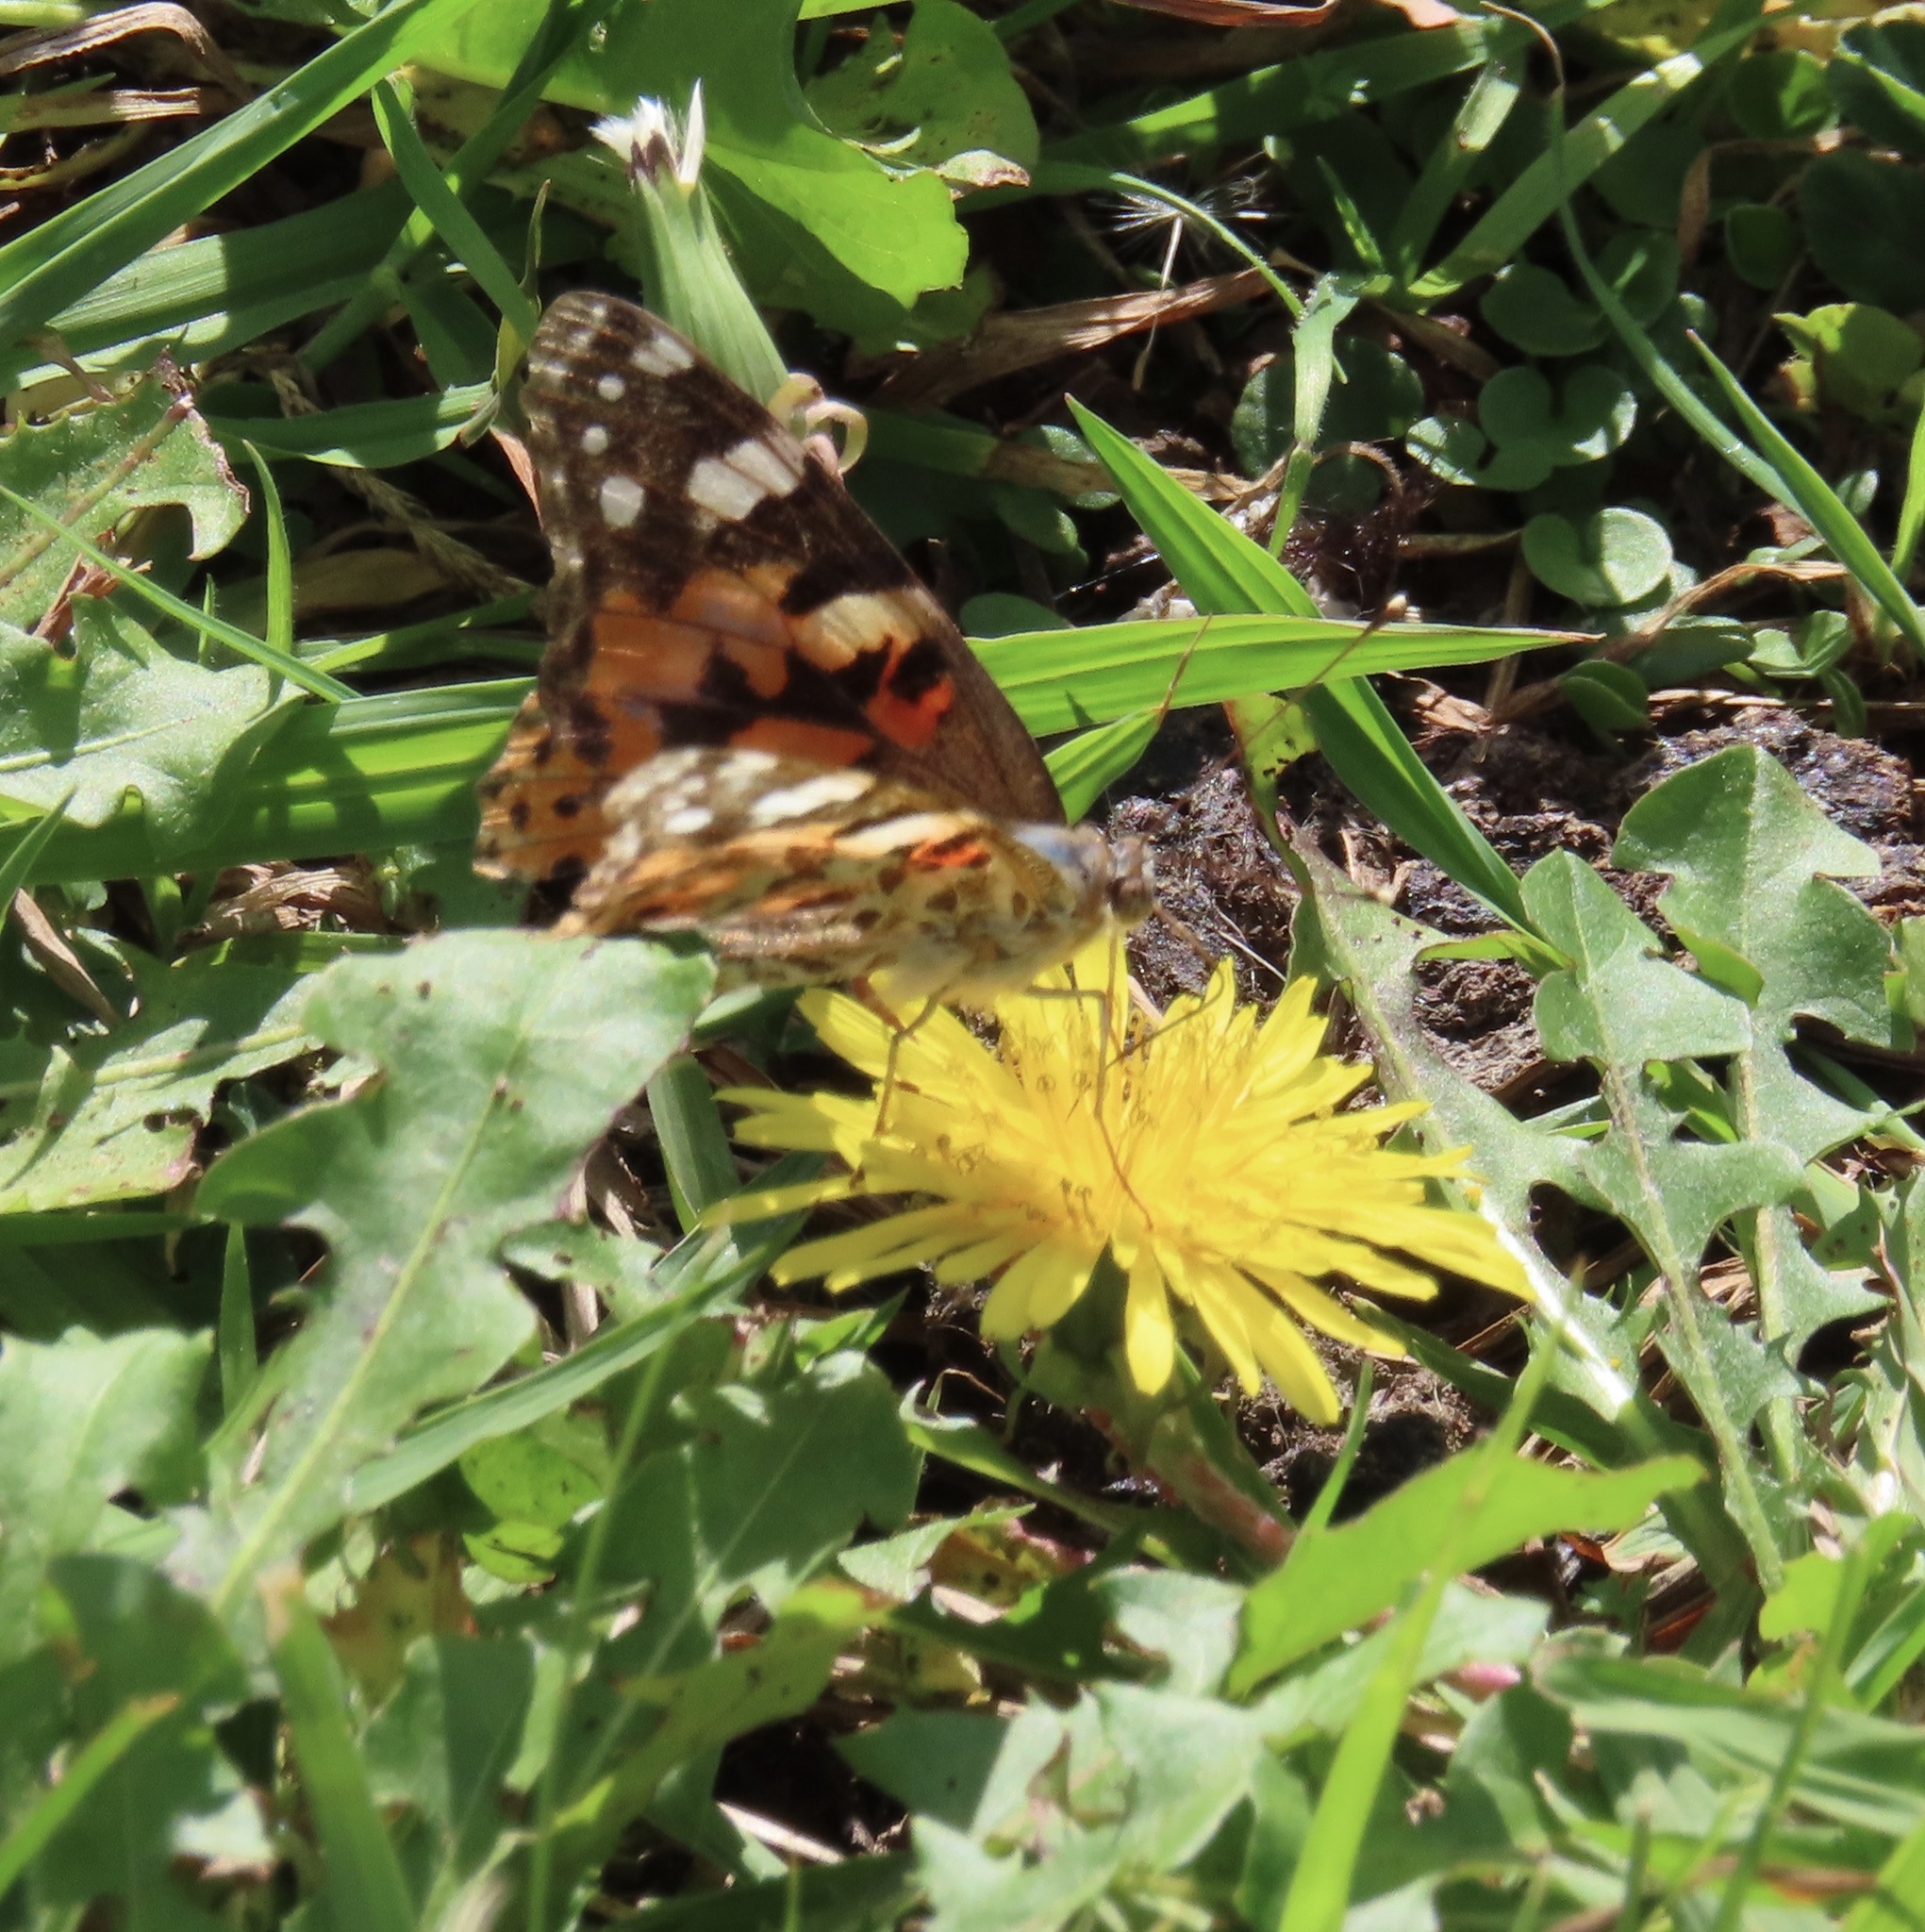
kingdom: Animalia
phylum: Arthropoda
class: Insecta
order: Lepidoptera
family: Nymphalidae
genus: Vanessa
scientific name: Vanessa cardui
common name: Painted lady
